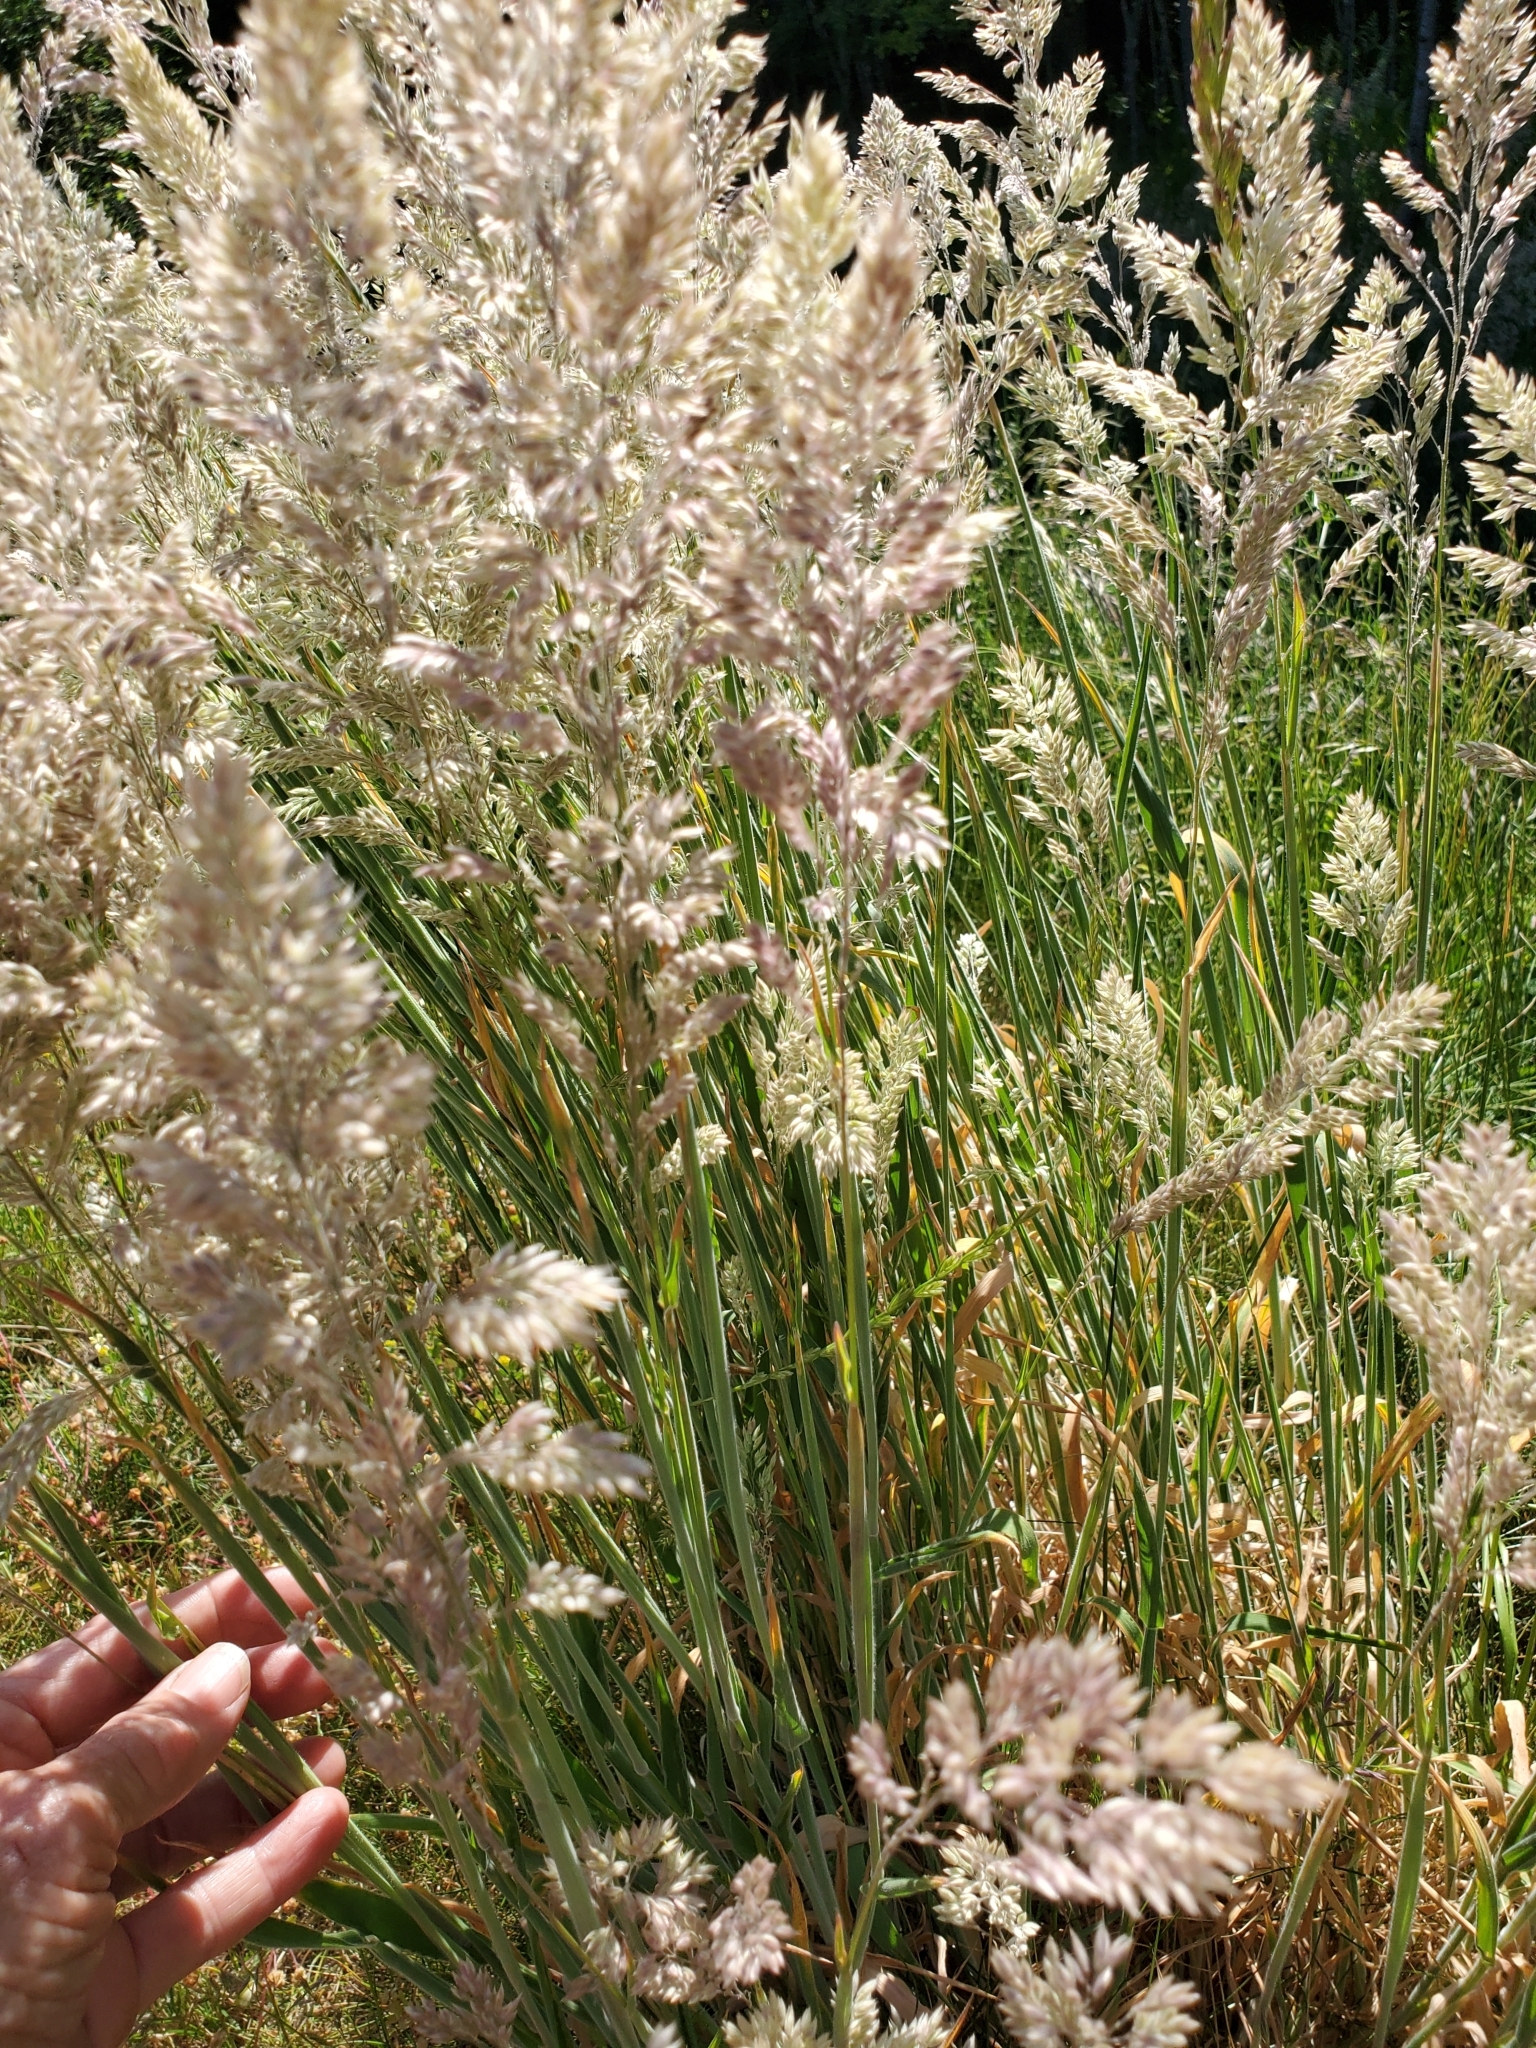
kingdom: Plantae
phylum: Tracheophyta
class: Liliopsida
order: Poales
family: Poaceae
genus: Holcus
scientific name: Holcus lanatus
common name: Yorkshire-fog
